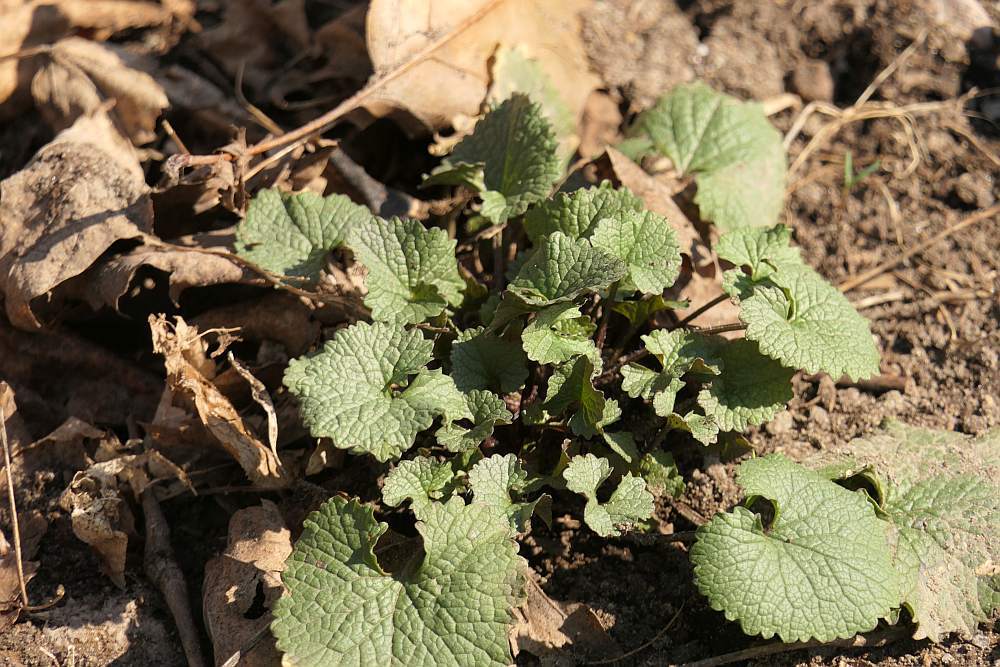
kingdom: Plantae
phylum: Tracheophyta
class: Magnoliopsida
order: Brassicales
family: Brassicaceae
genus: Alliaria
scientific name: Alliaria petiolata
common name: Garlic mustard
